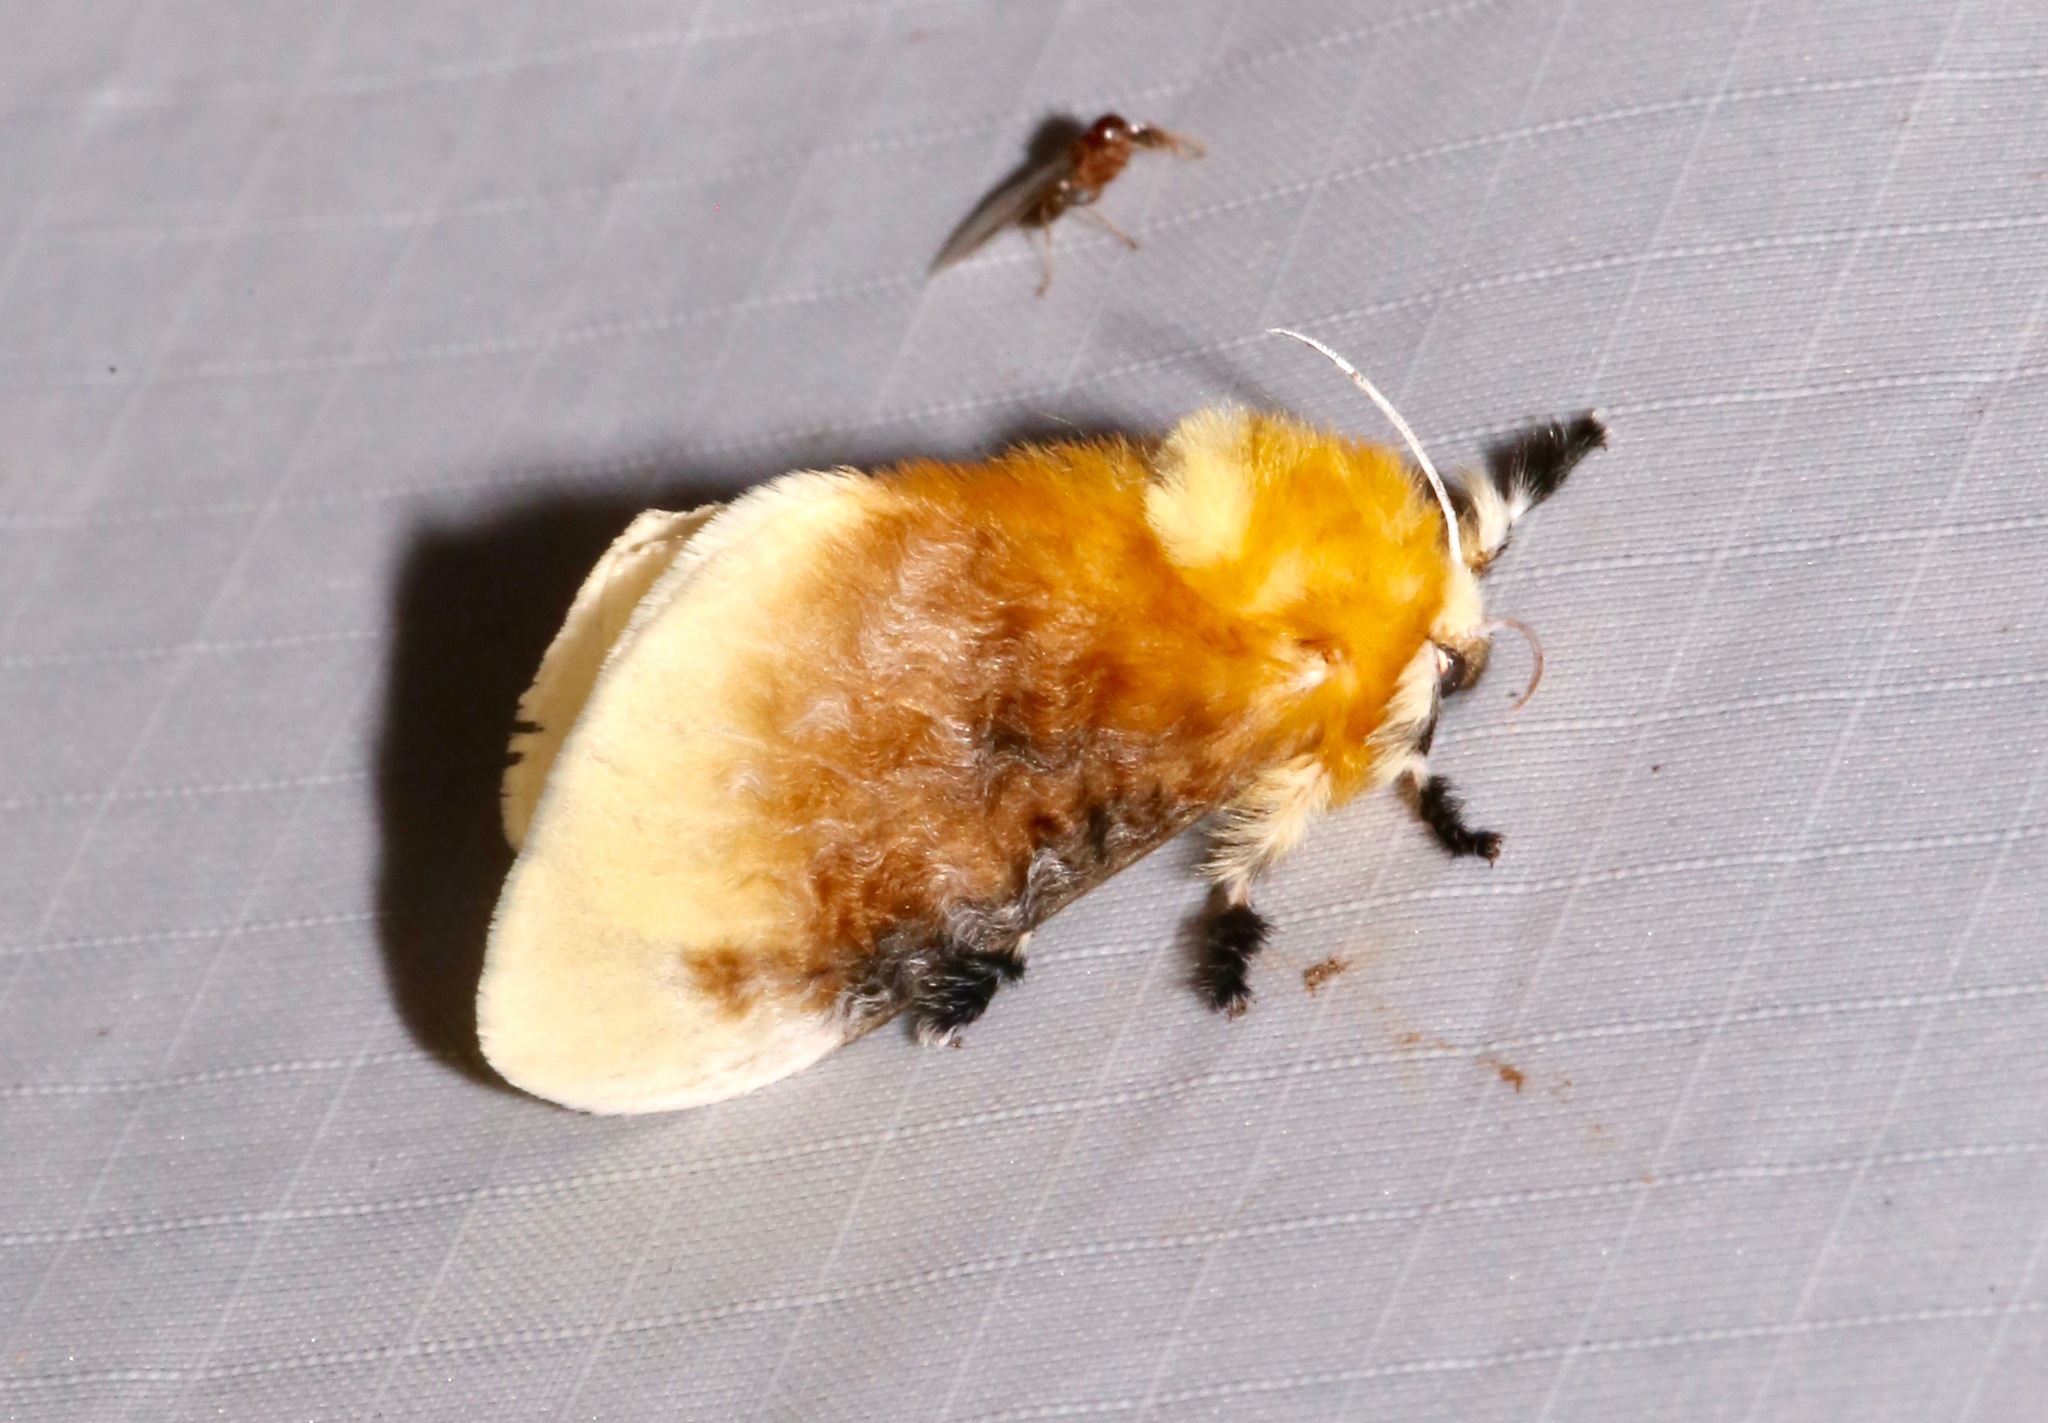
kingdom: Animalia
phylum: Arthropoda
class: Insecta
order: Lepidoptera
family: Megalopygidae
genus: Megalopyge
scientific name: Megalopyge opercularis
